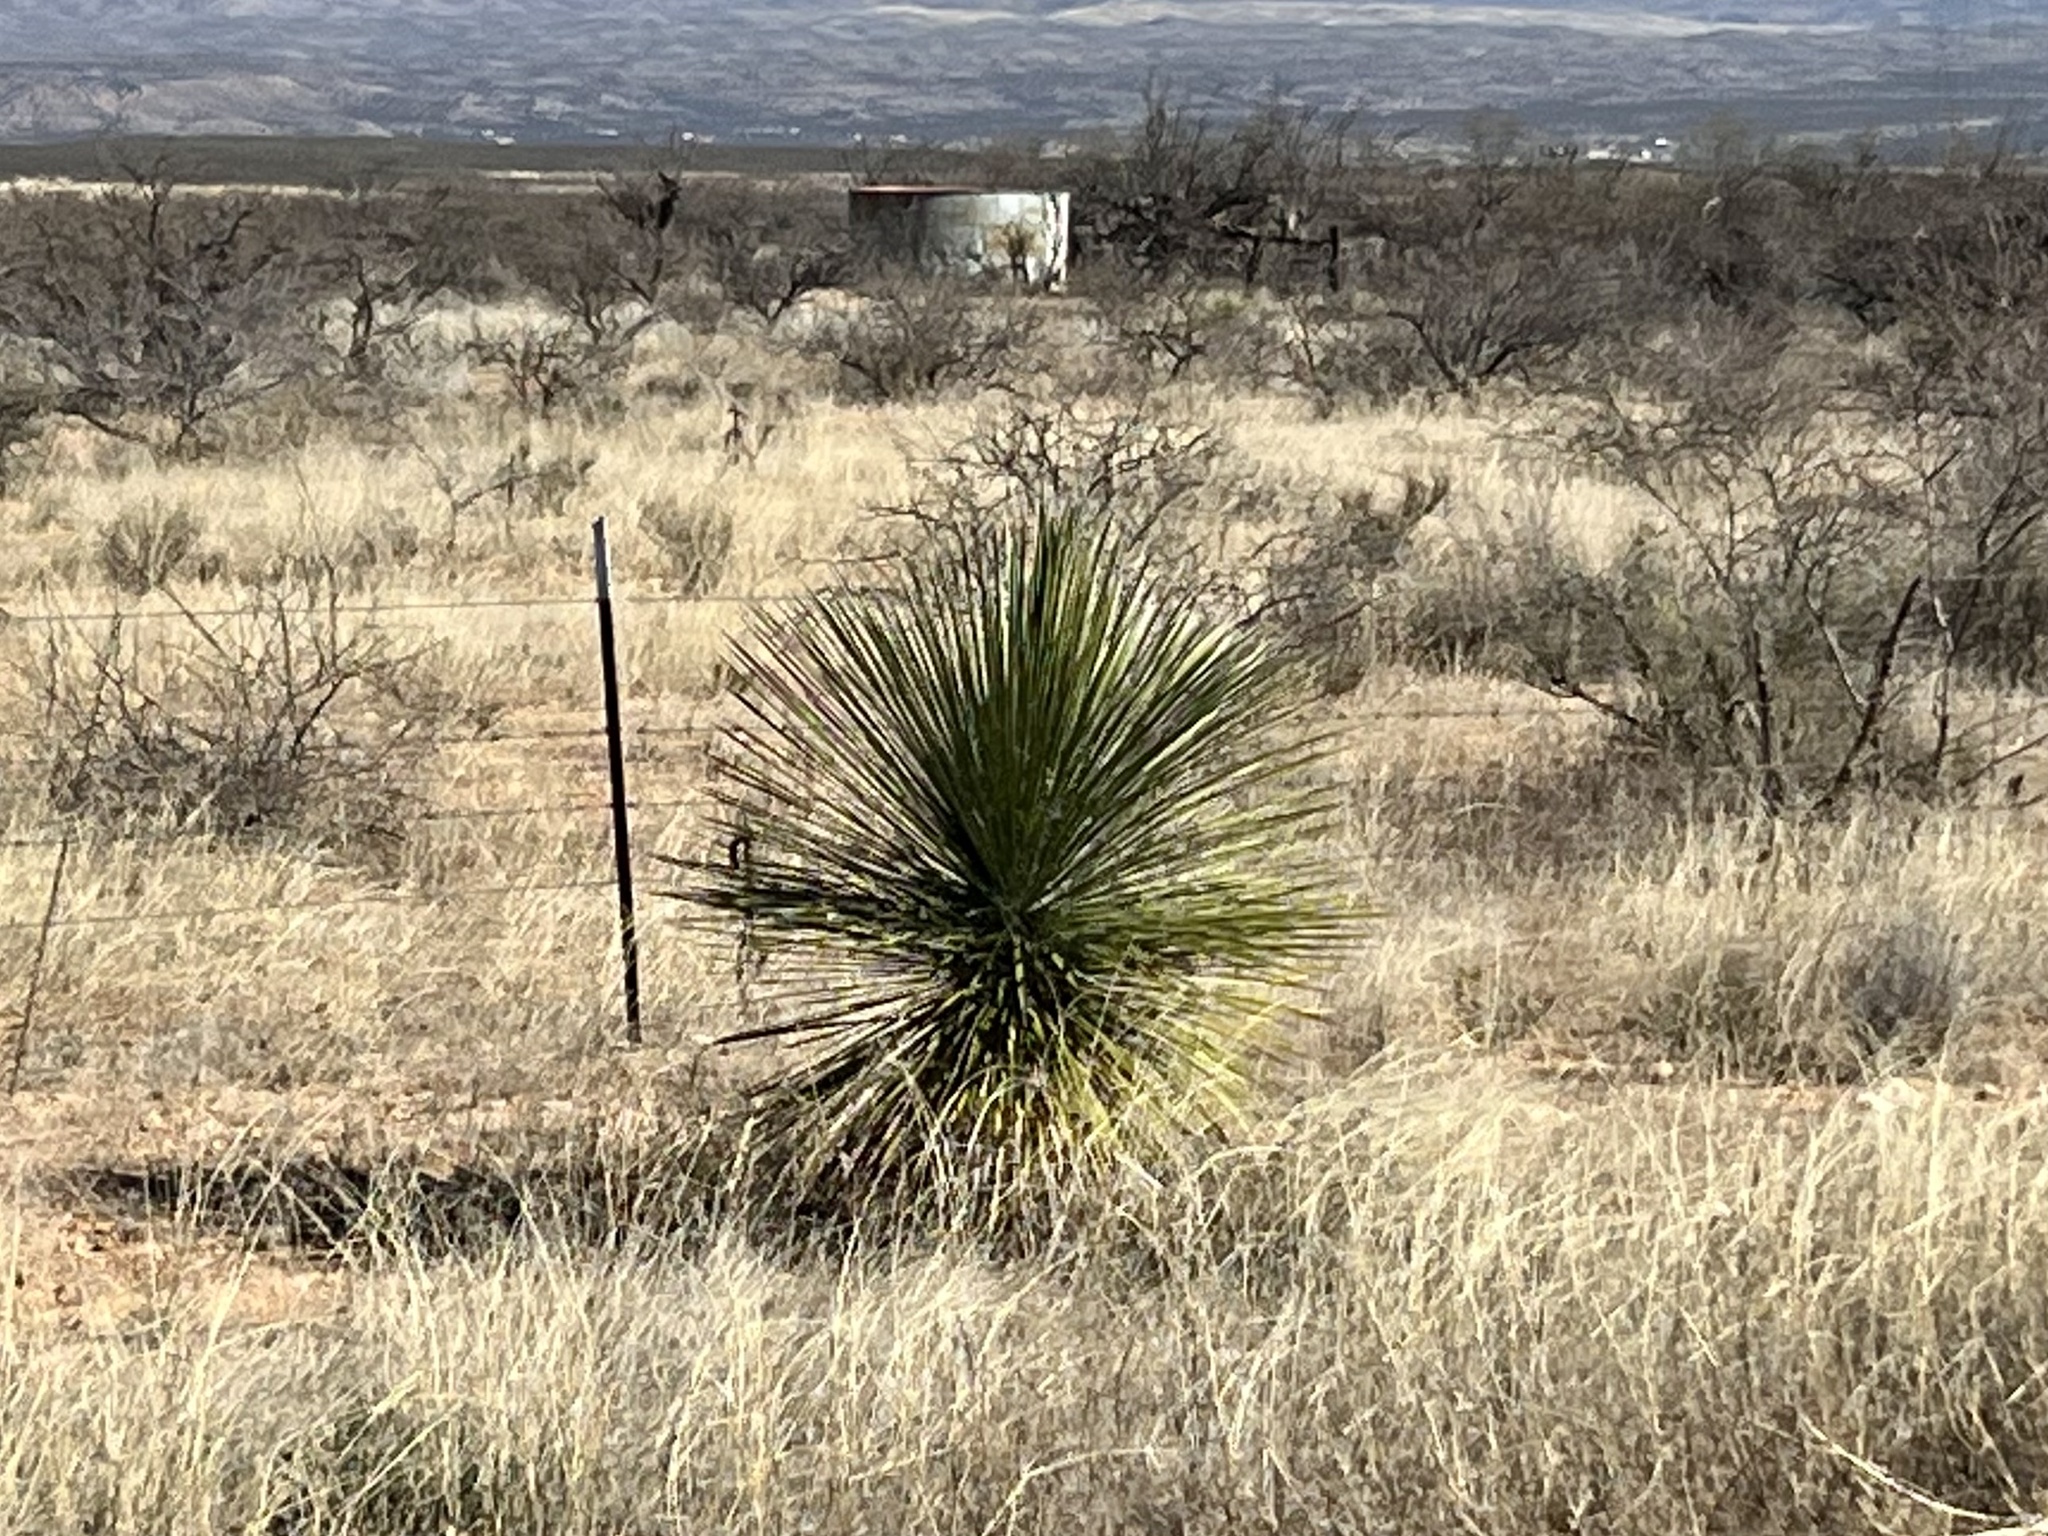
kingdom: Plantae
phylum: Tracheophyta
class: Liliopsida
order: Asparagales
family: Asparagaceae
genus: Yucca
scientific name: Yucca elata
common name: Palmella
